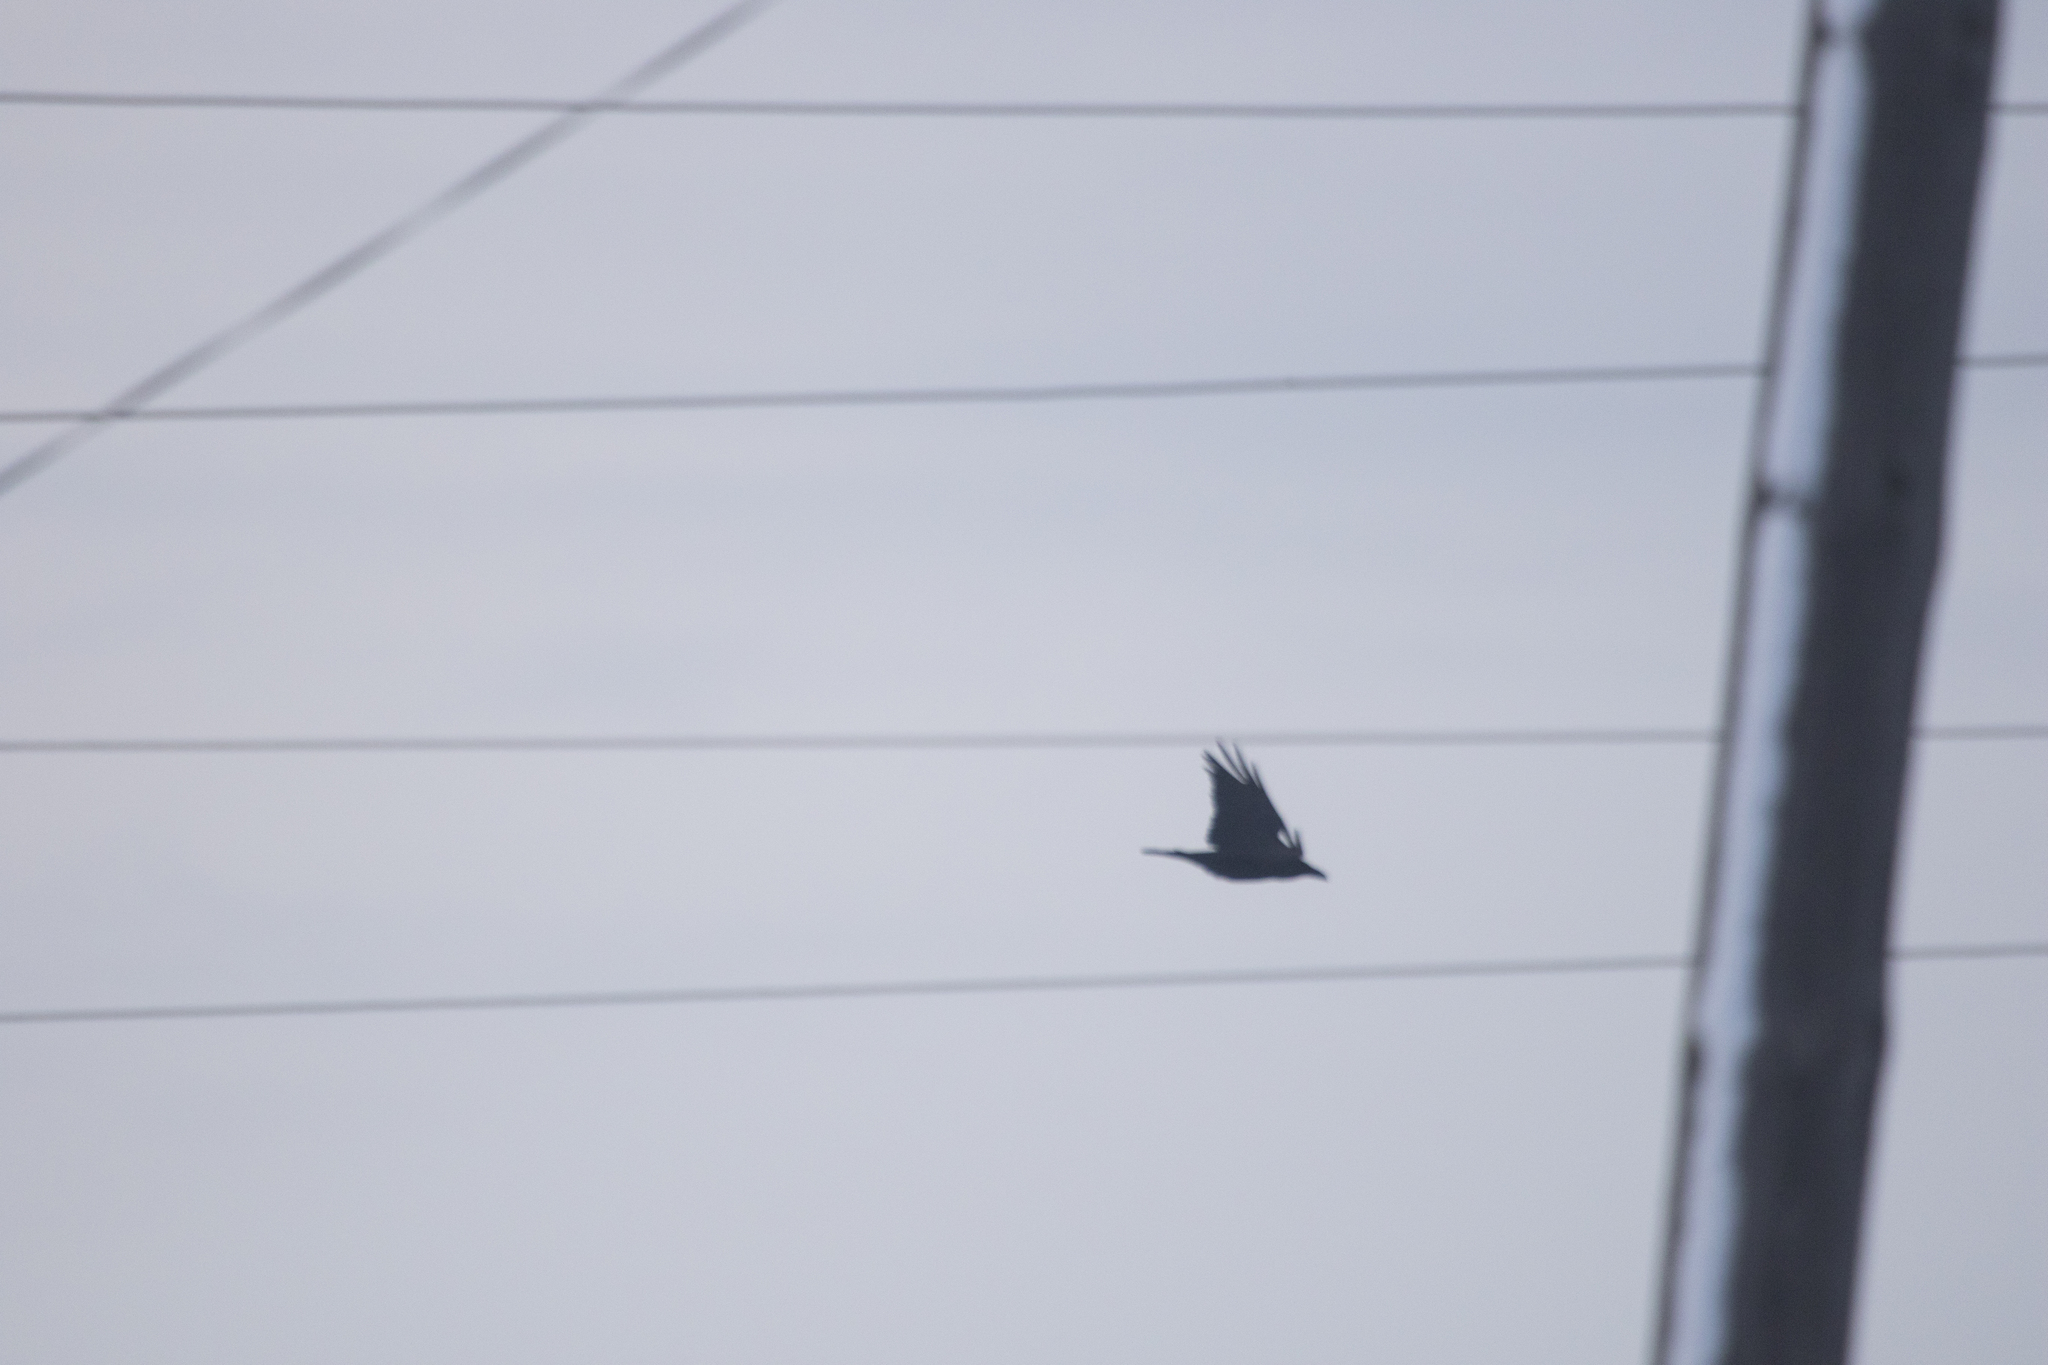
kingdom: Animalia
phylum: Chordata
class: Aves
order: Passeriformes
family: Corvidae
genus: Corvus
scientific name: Corvus corax
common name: Common raven
